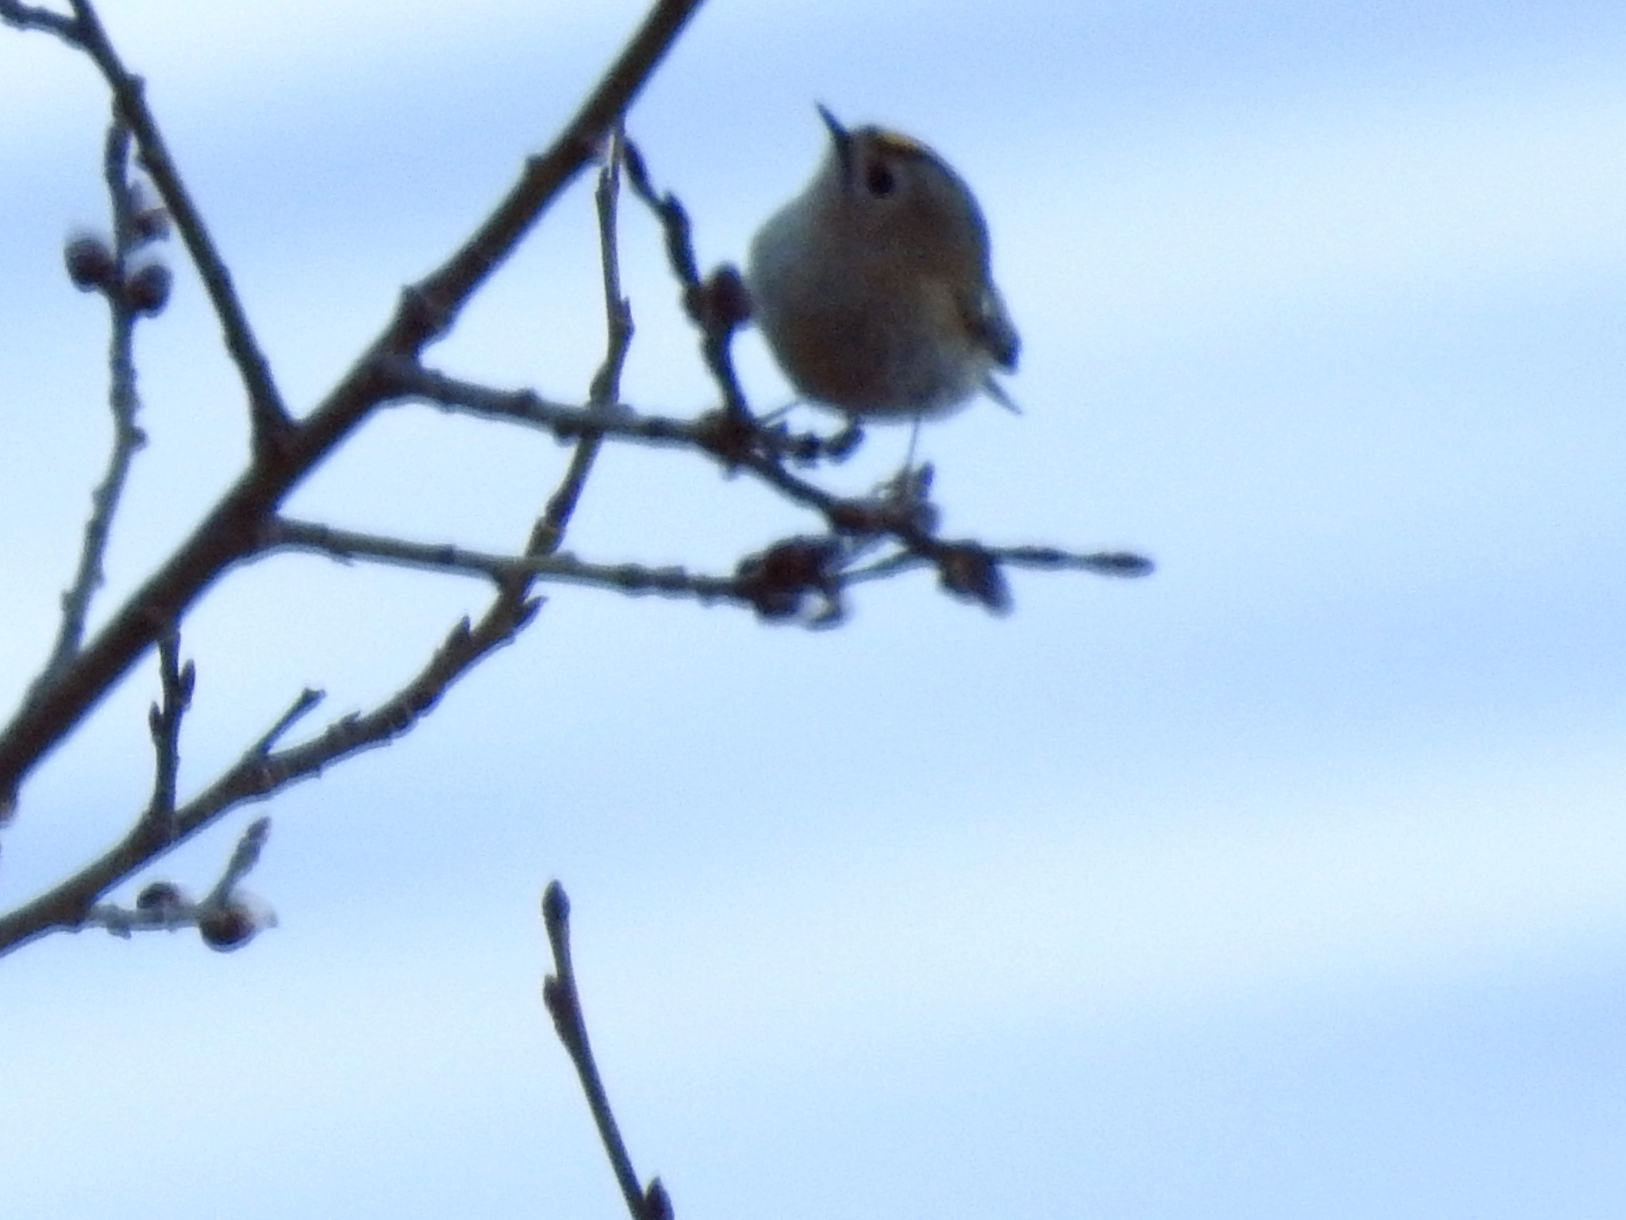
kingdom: Animalia
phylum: Chordata
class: Aves
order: Passeriformes
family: Regulidae
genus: Regulus
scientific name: Regulus regulus
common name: Goldcrest
